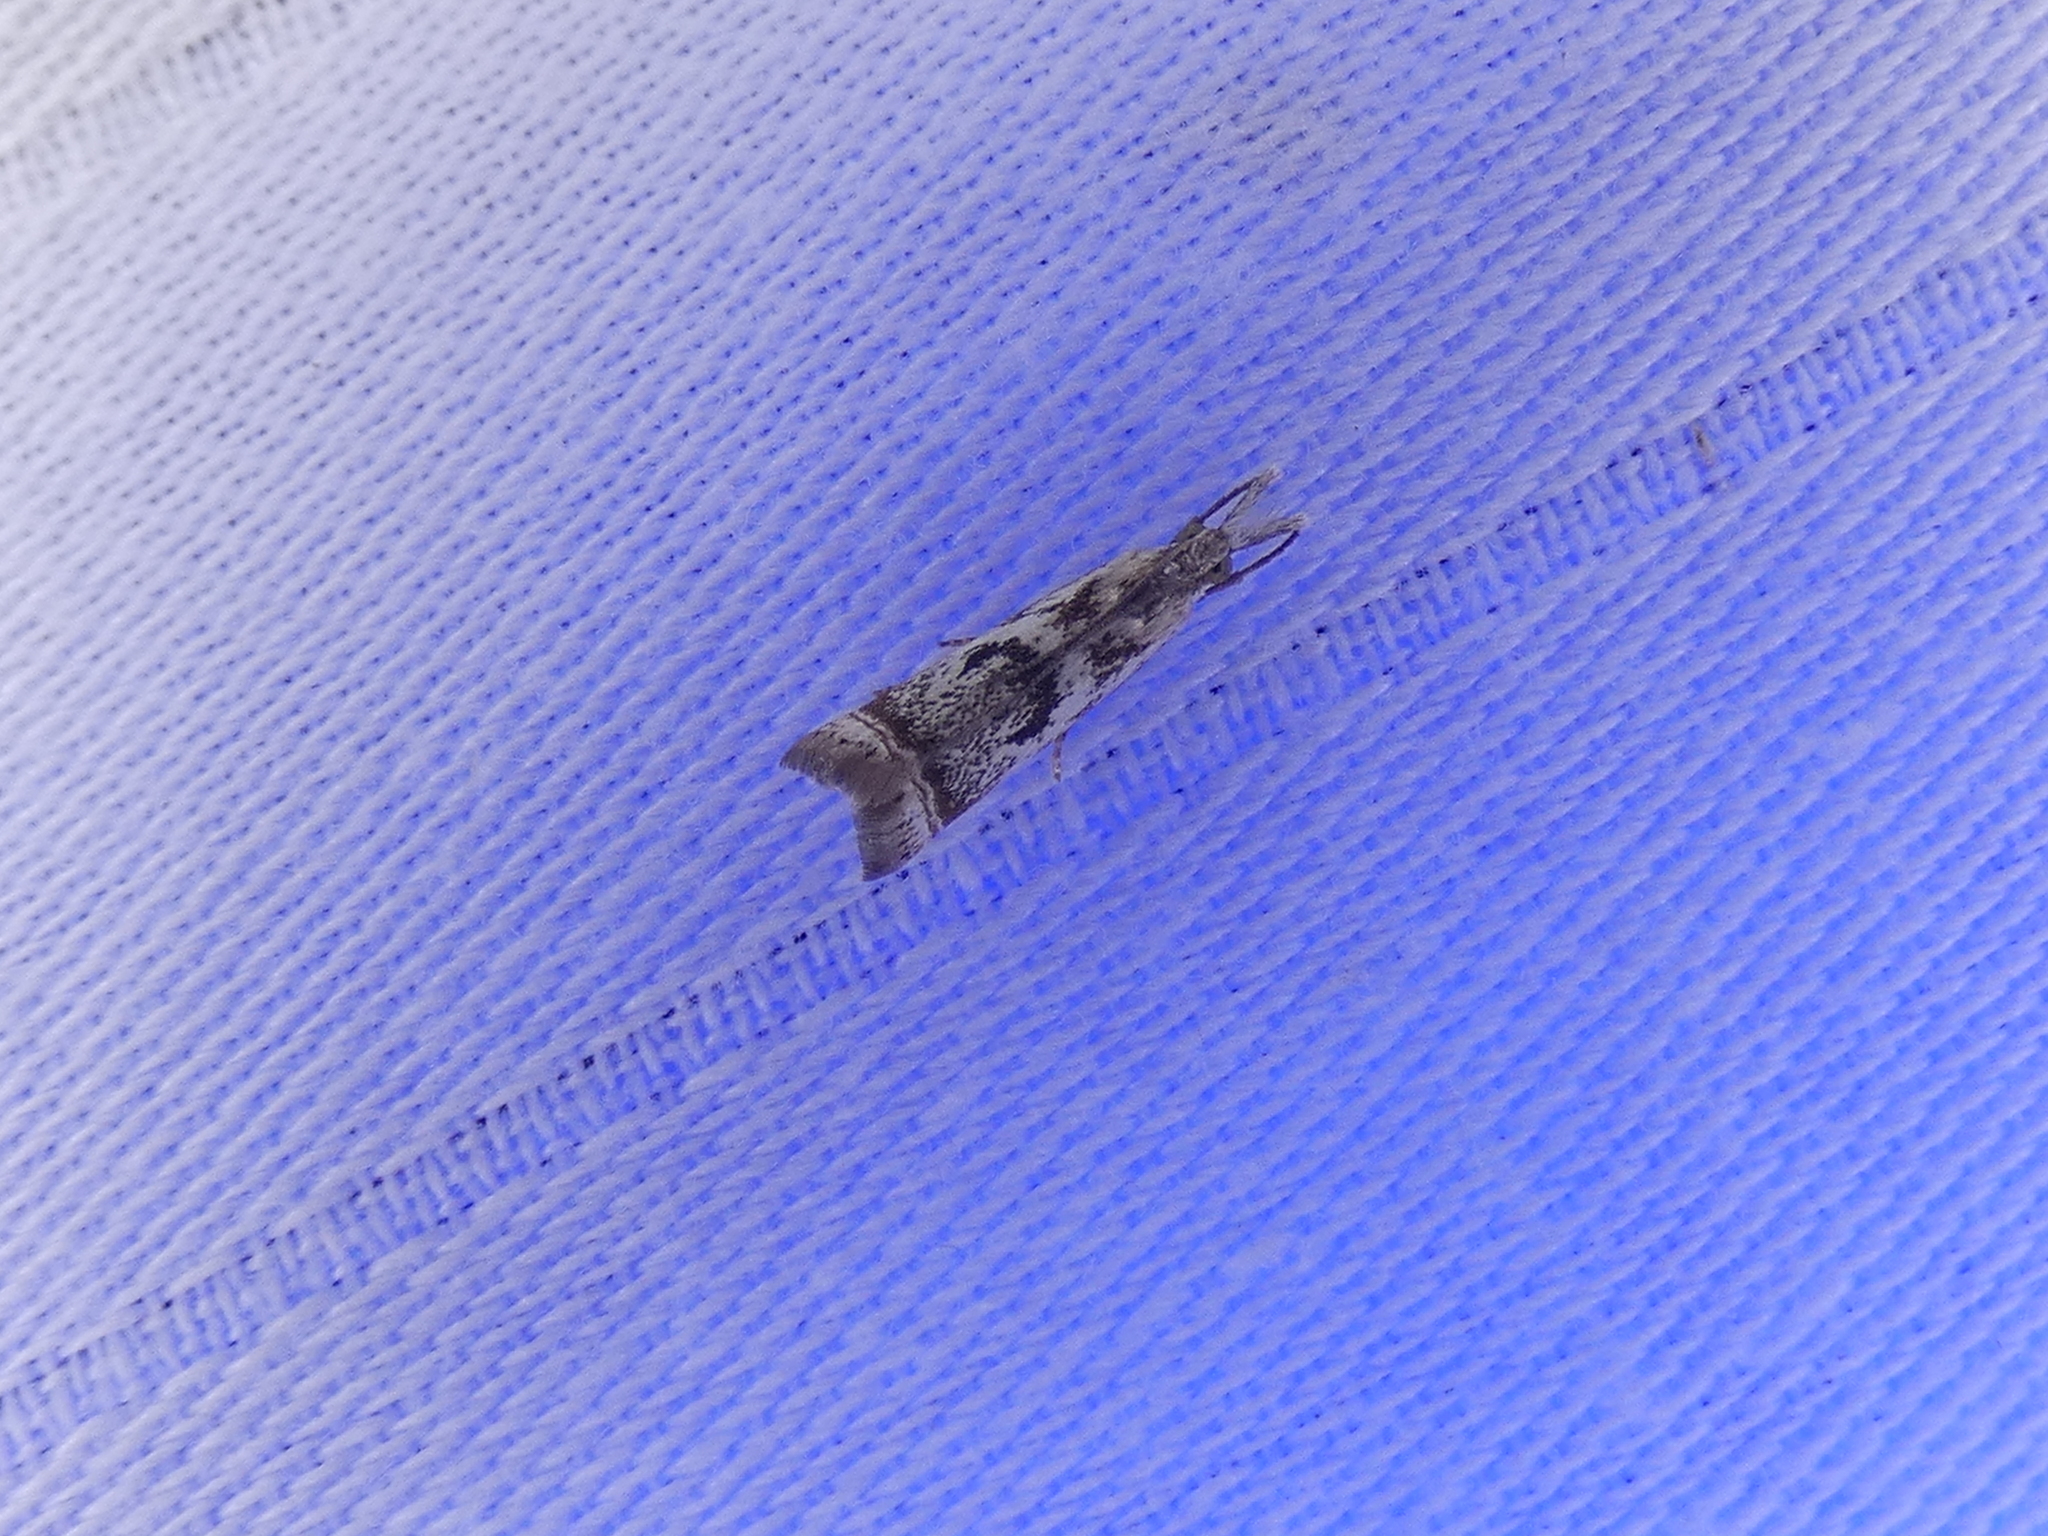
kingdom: Animalia
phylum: Arthropoda
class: Insecta
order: Lepidoptera
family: Crambidae
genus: Microcrambus
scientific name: Microcrambus elegans
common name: Elegant grass-veneer
